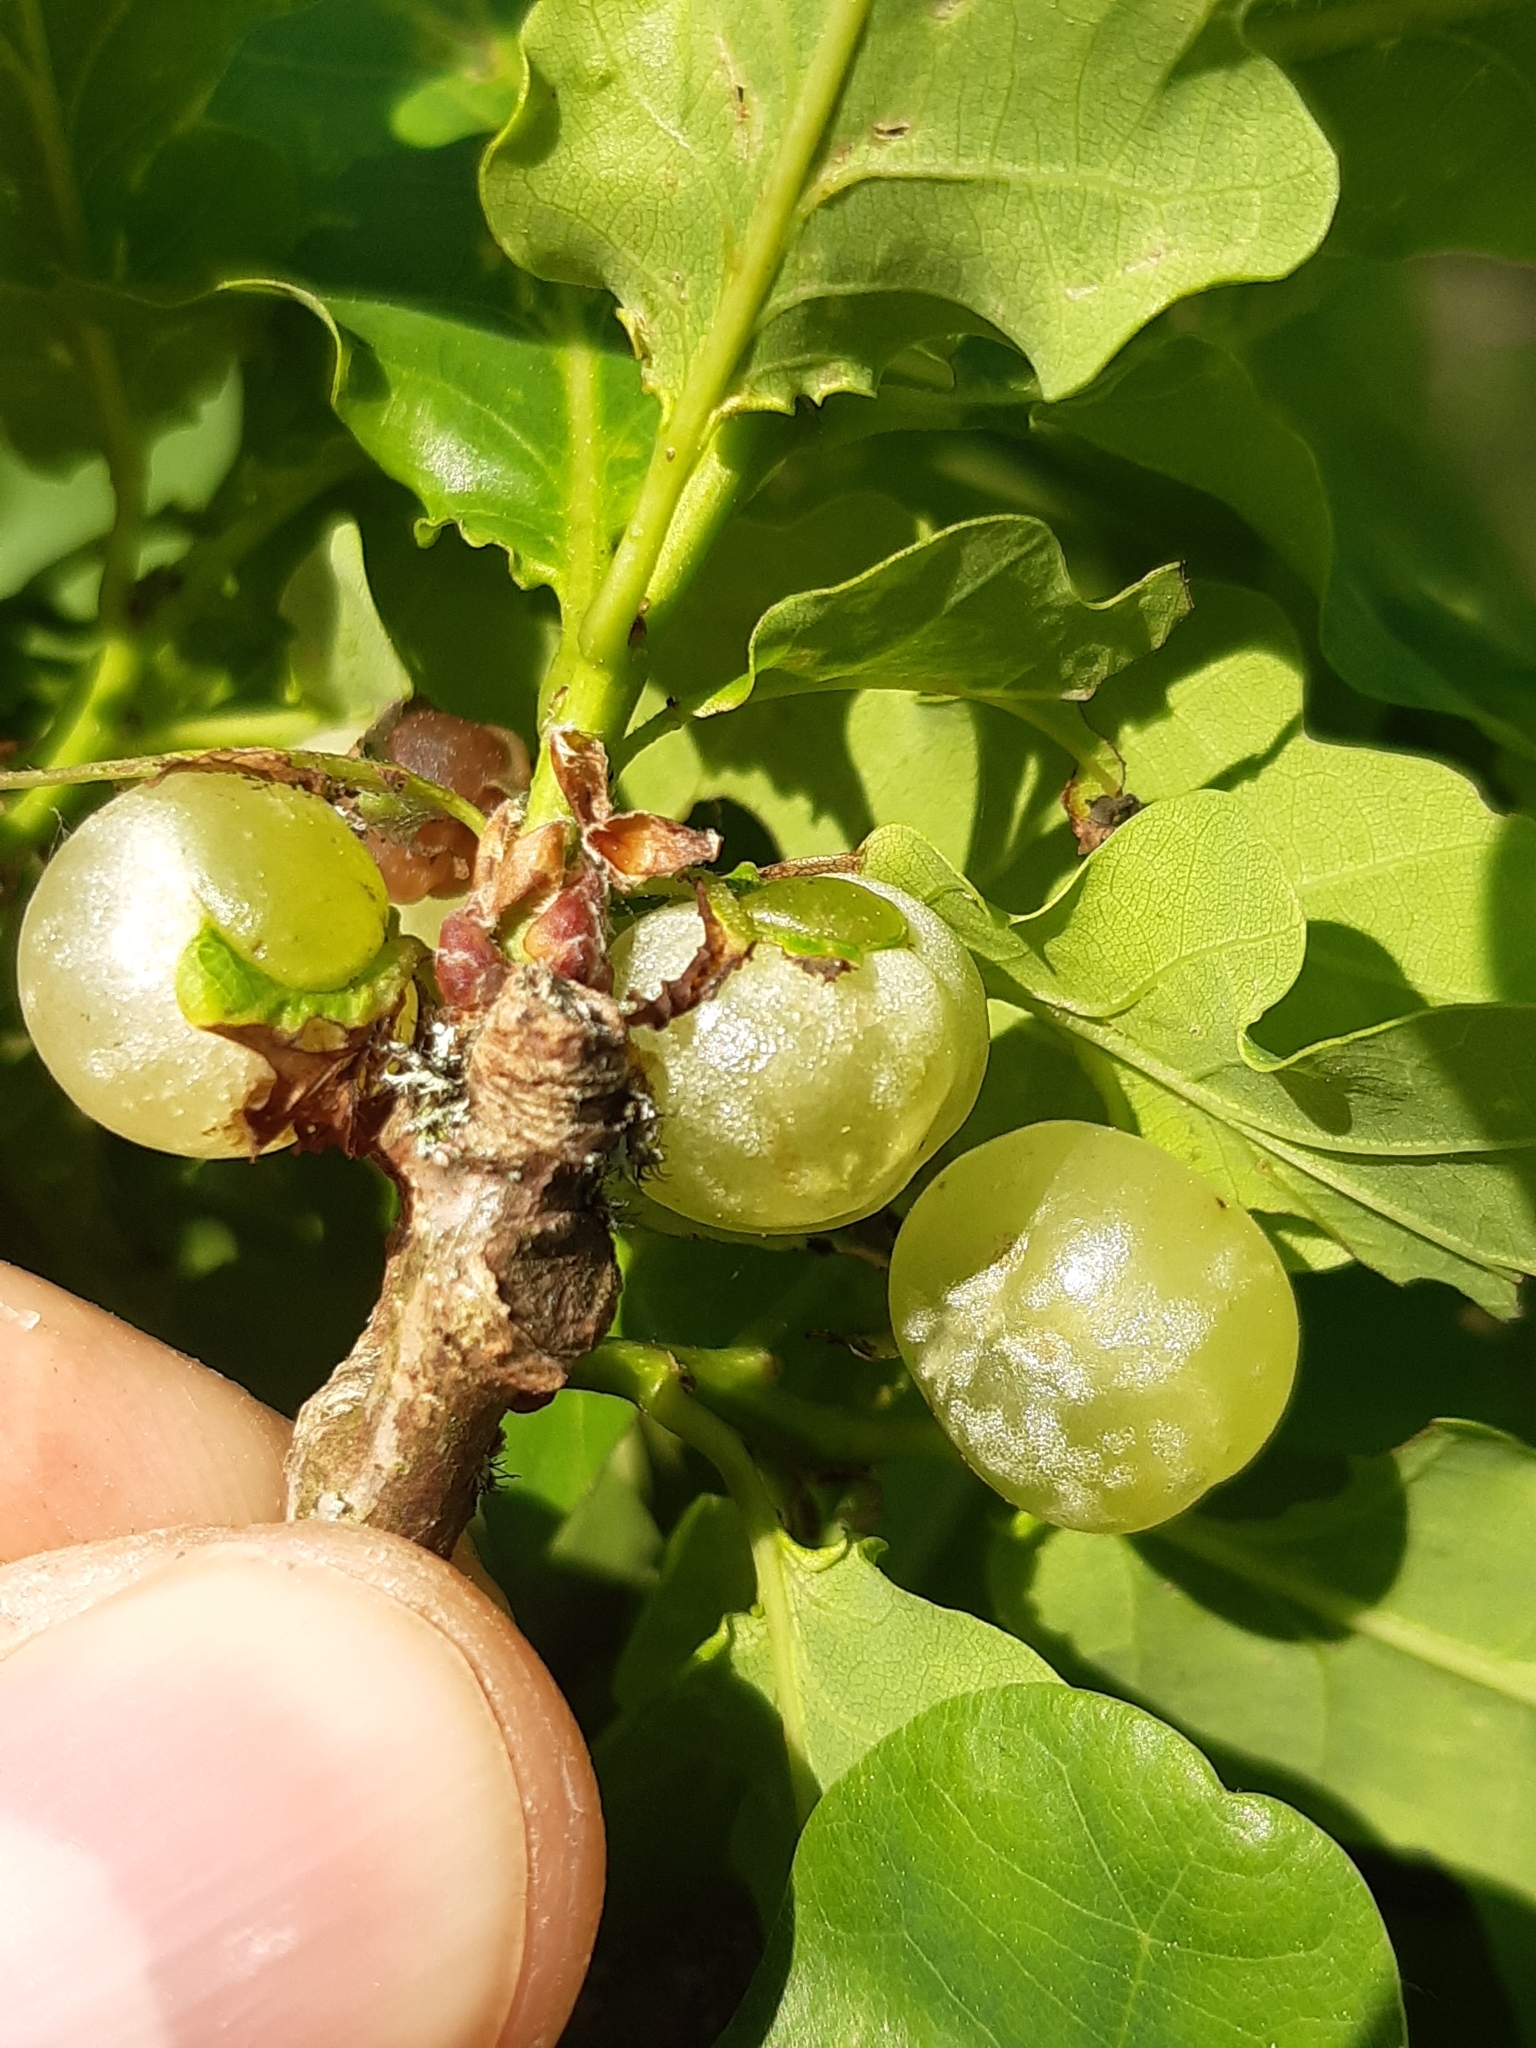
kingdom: Animalia
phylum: Arthropoda
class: Insecta
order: Hymenoptera
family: Cynipidae
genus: Neuroterus
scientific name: Neuroterus quercusbaccarum
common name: Common spangle gall
